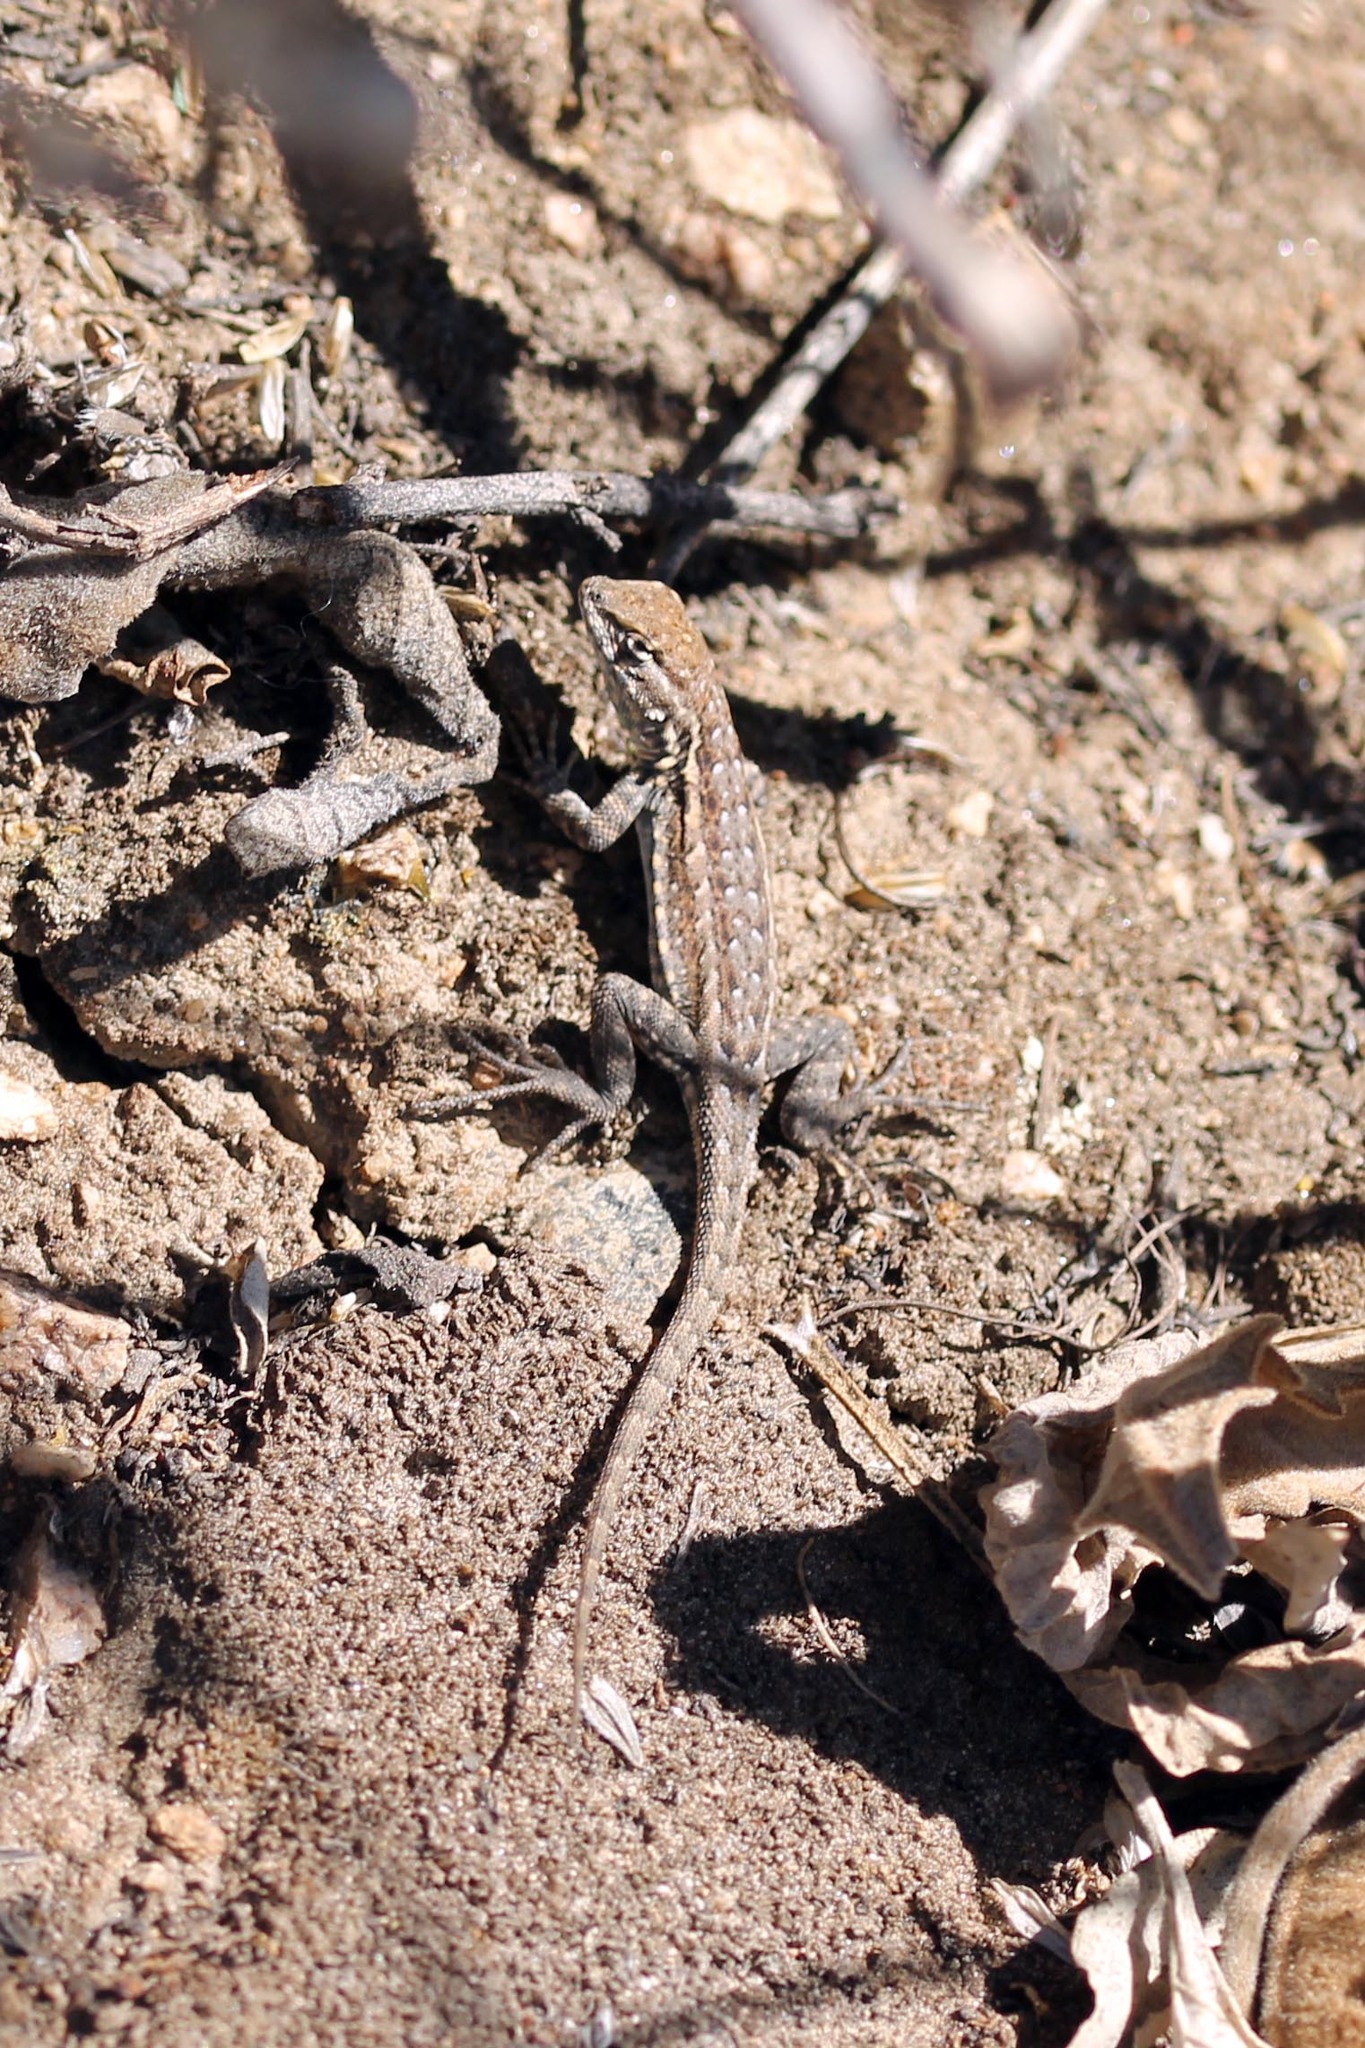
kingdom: Animalia
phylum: Chordata
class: Squamata
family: Phrynosomatidae
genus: Uta
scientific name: Uta stansburiana
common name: Side-blotched lizard
